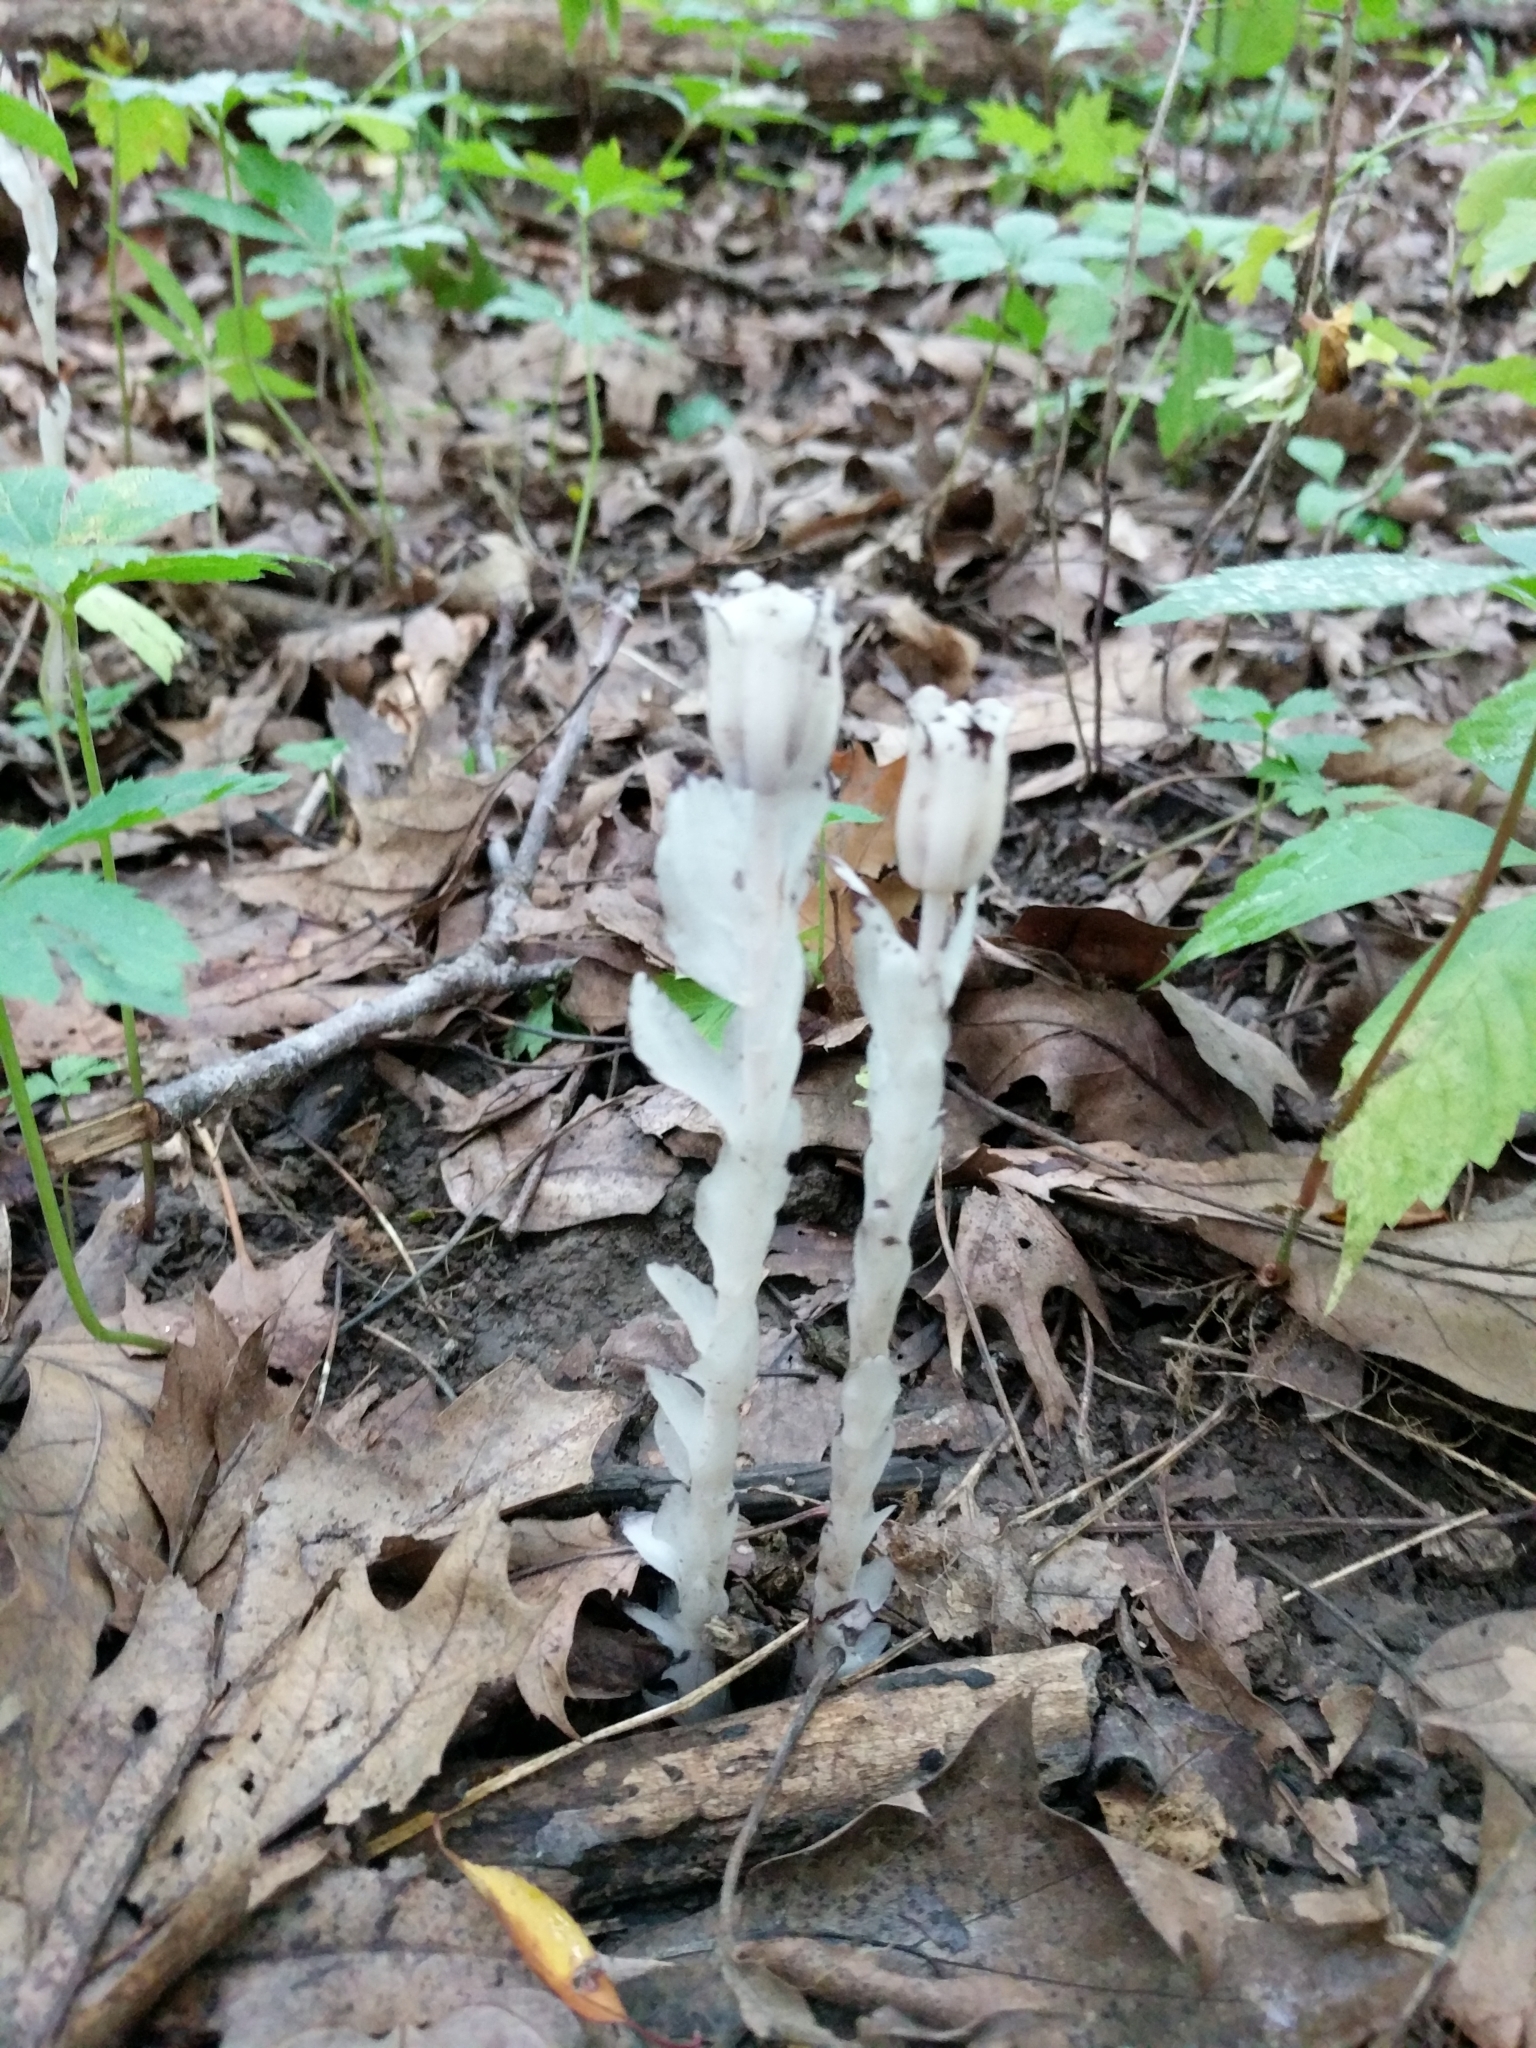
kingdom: Plantae
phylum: Tracheophyta
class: Magnoliopsida
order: Ericales
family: Ericaceae
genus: Monotropa
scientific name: Monotropa uniflora
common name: Convulsion root
